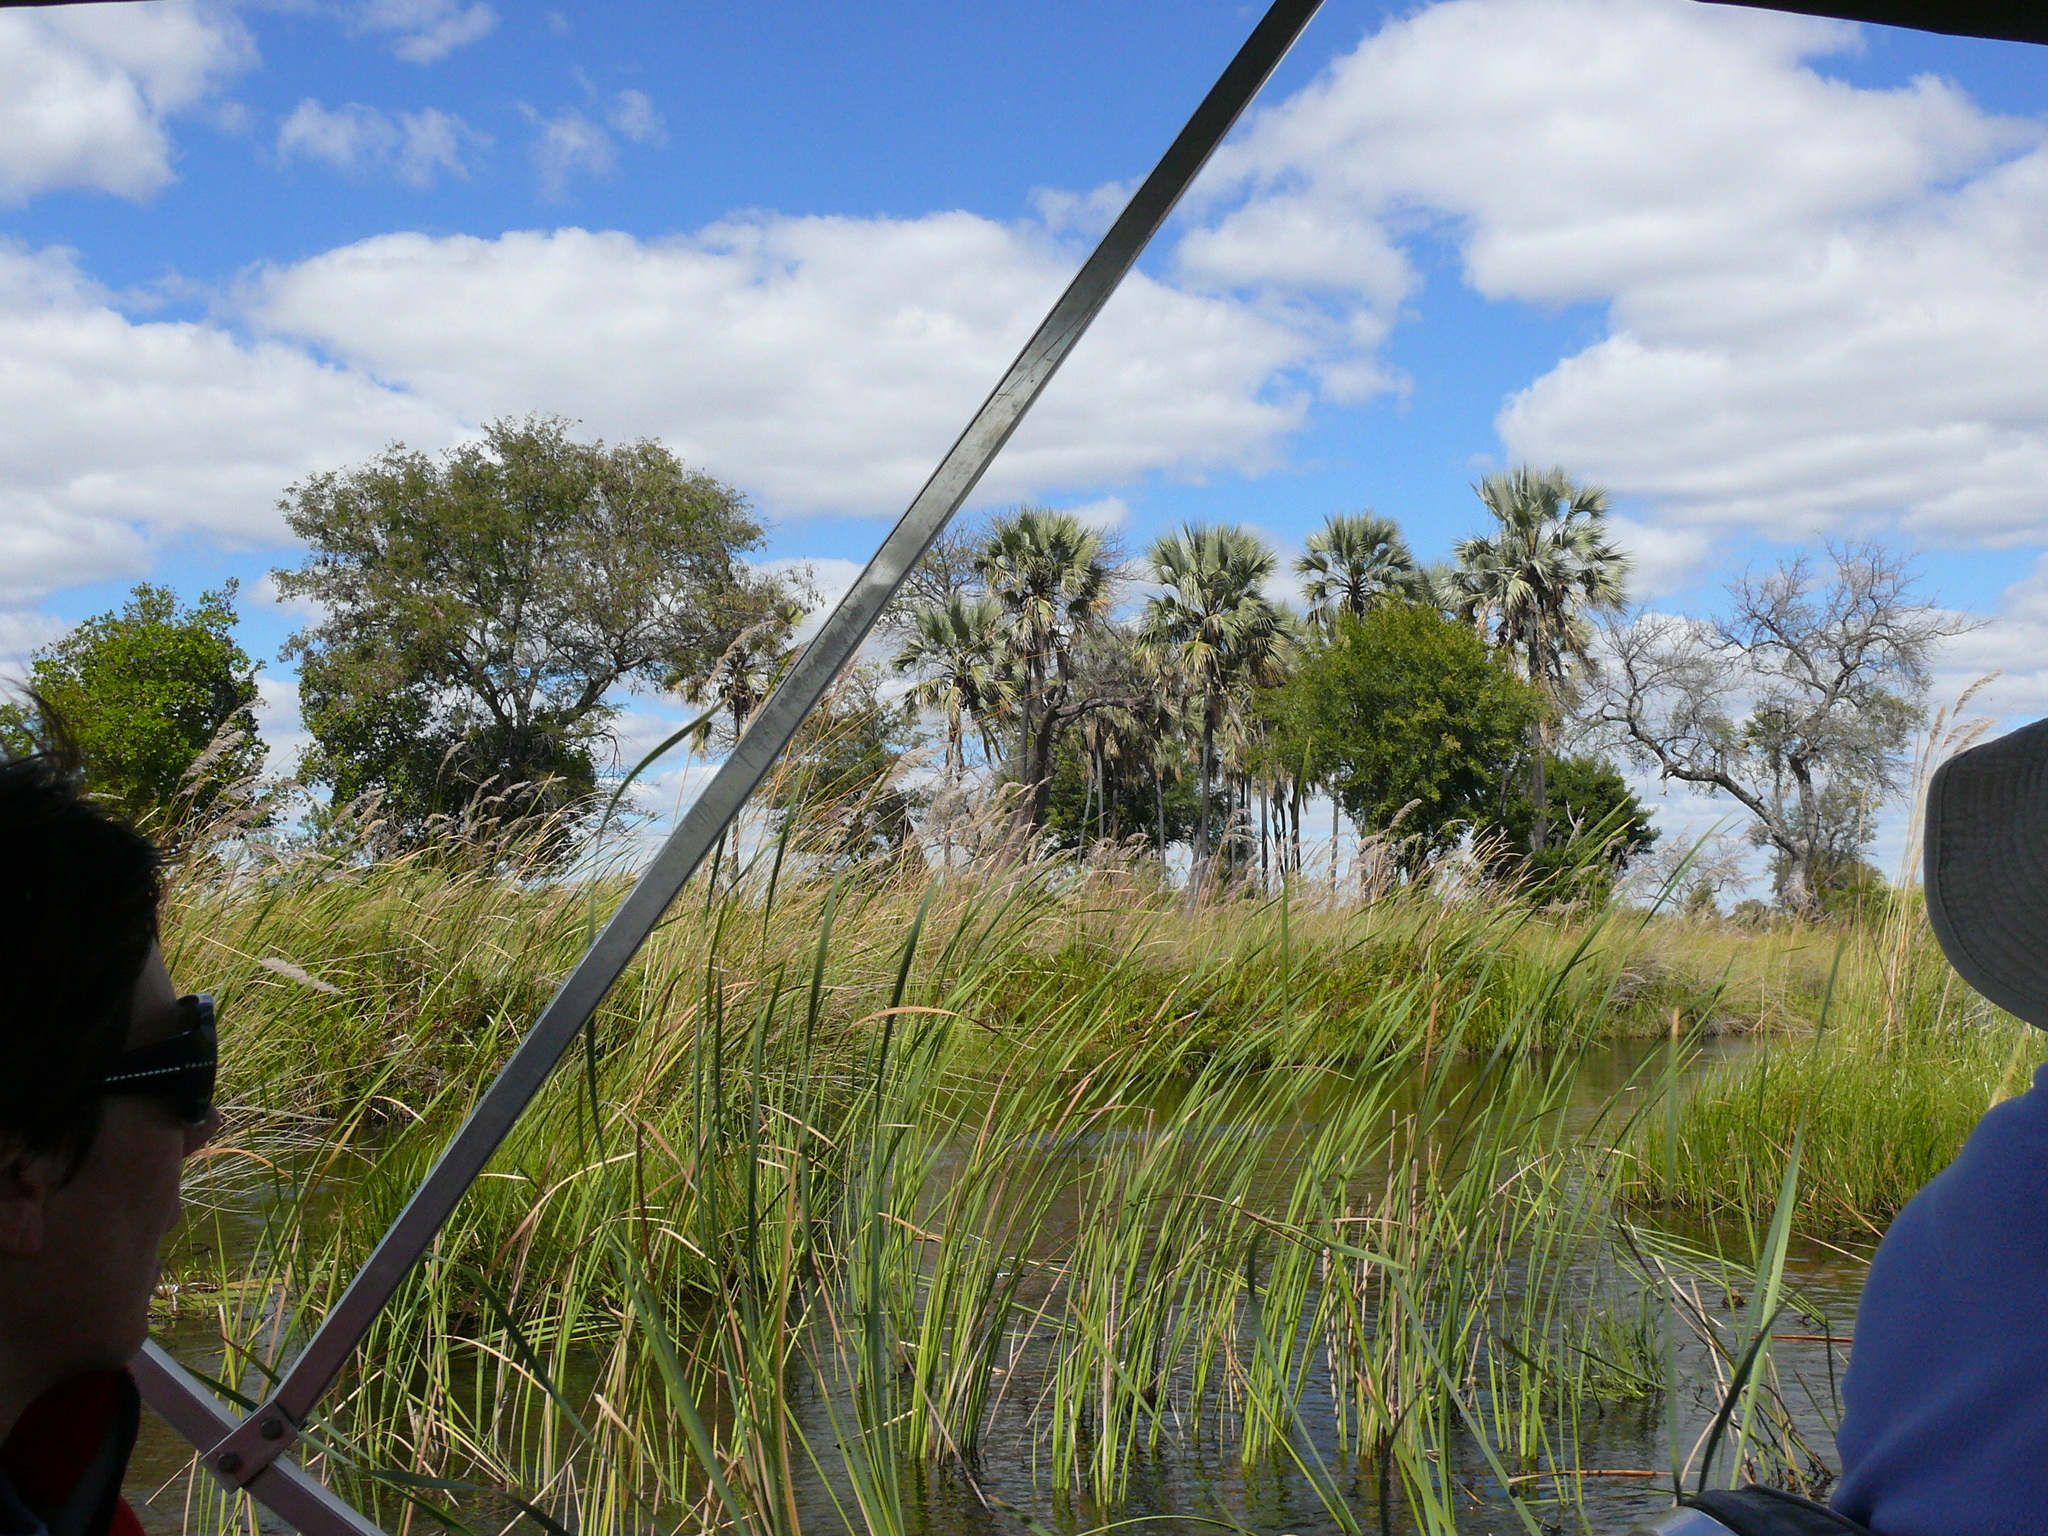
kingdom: Plantae
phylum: Tracheophyta
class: Liliopsida
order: Arecales
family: Arecaceae
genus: Hyphaene
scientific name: Hyphaene petersiana
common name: African ivory nut palm
